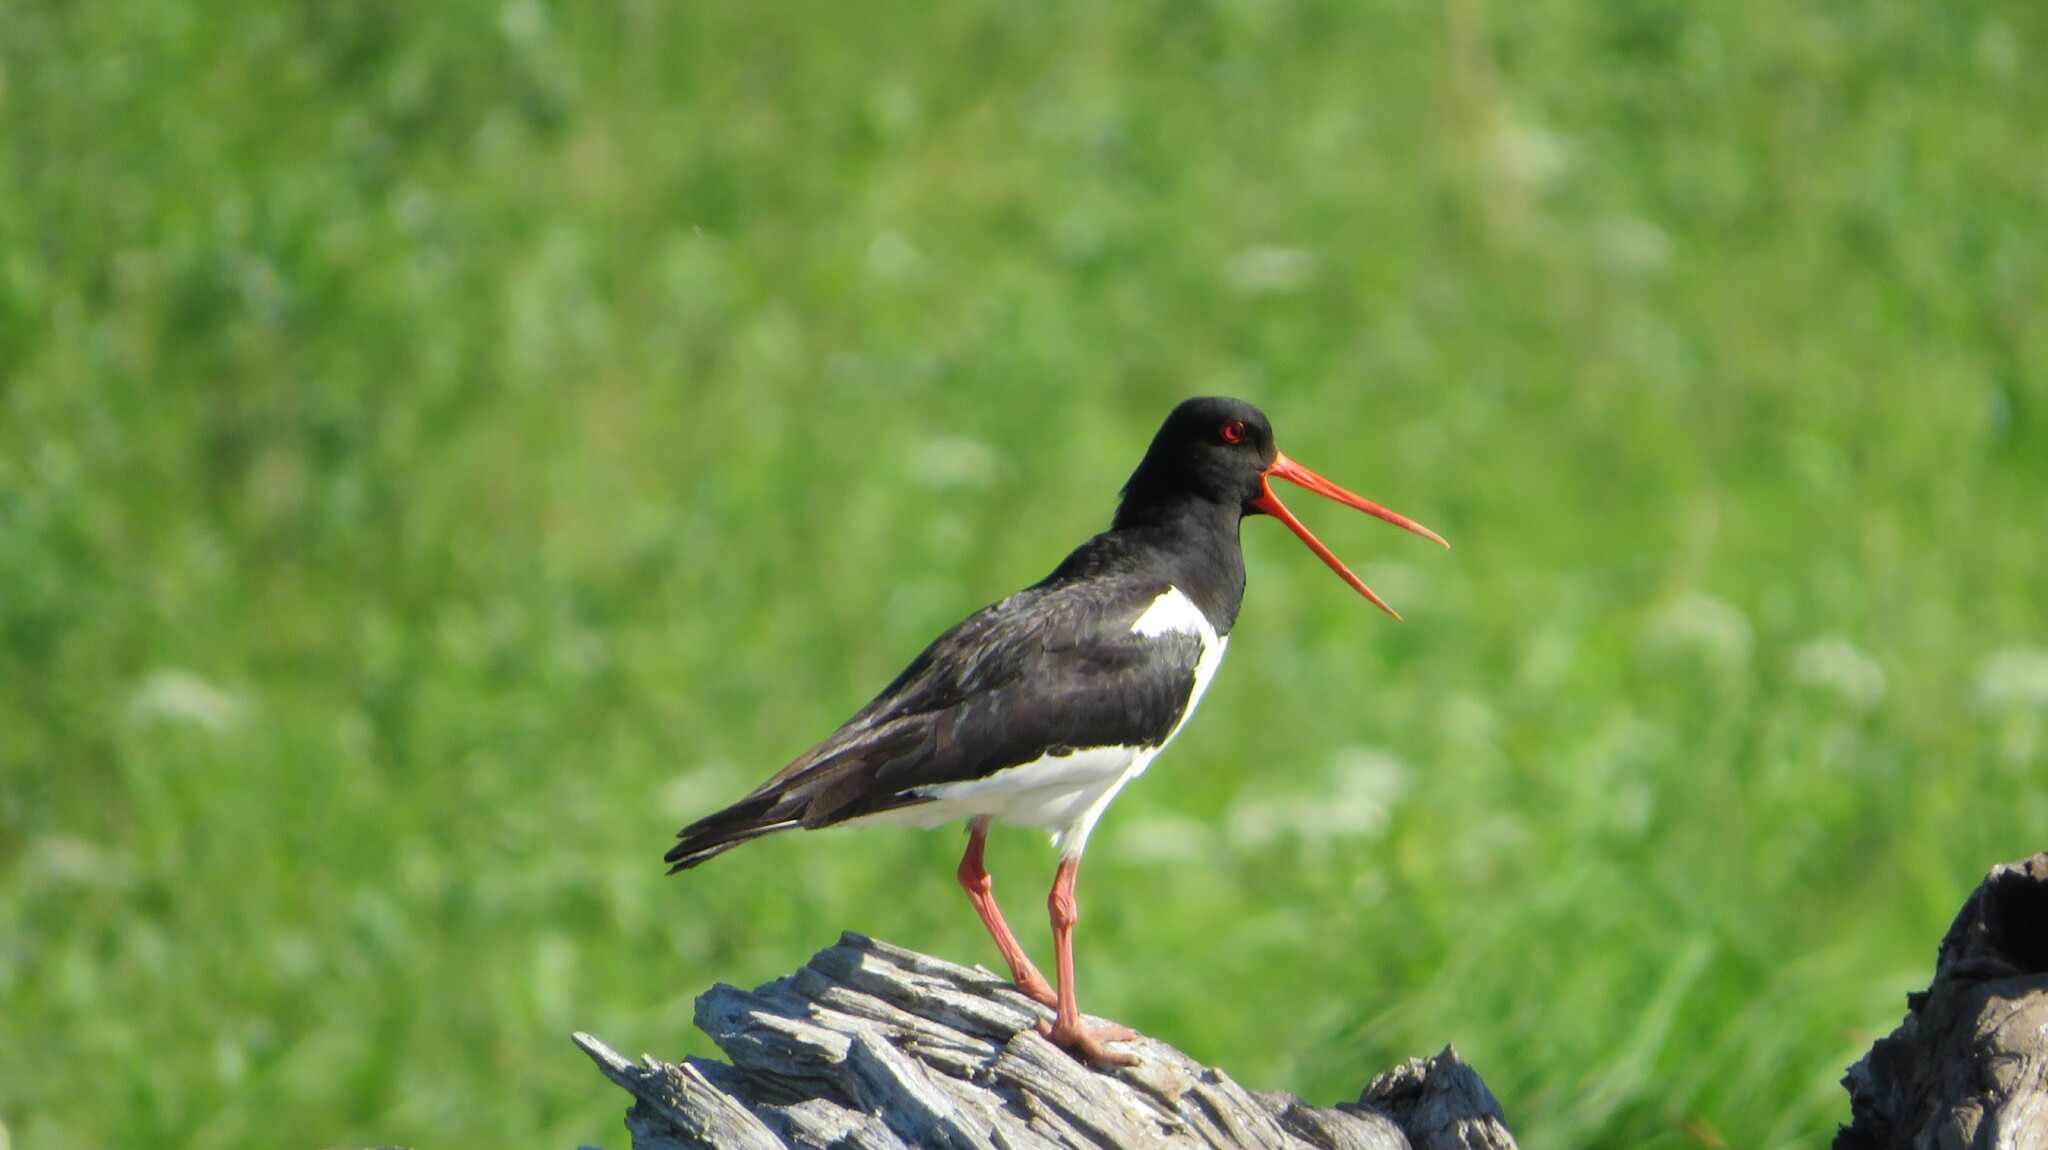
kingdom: Animalia
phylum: Chordata
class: Aves
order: Charadriiformes
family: Haematopodidae
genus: Haematopus
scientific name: Haematopus ostralegus
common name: Eurasian oystercatcher
